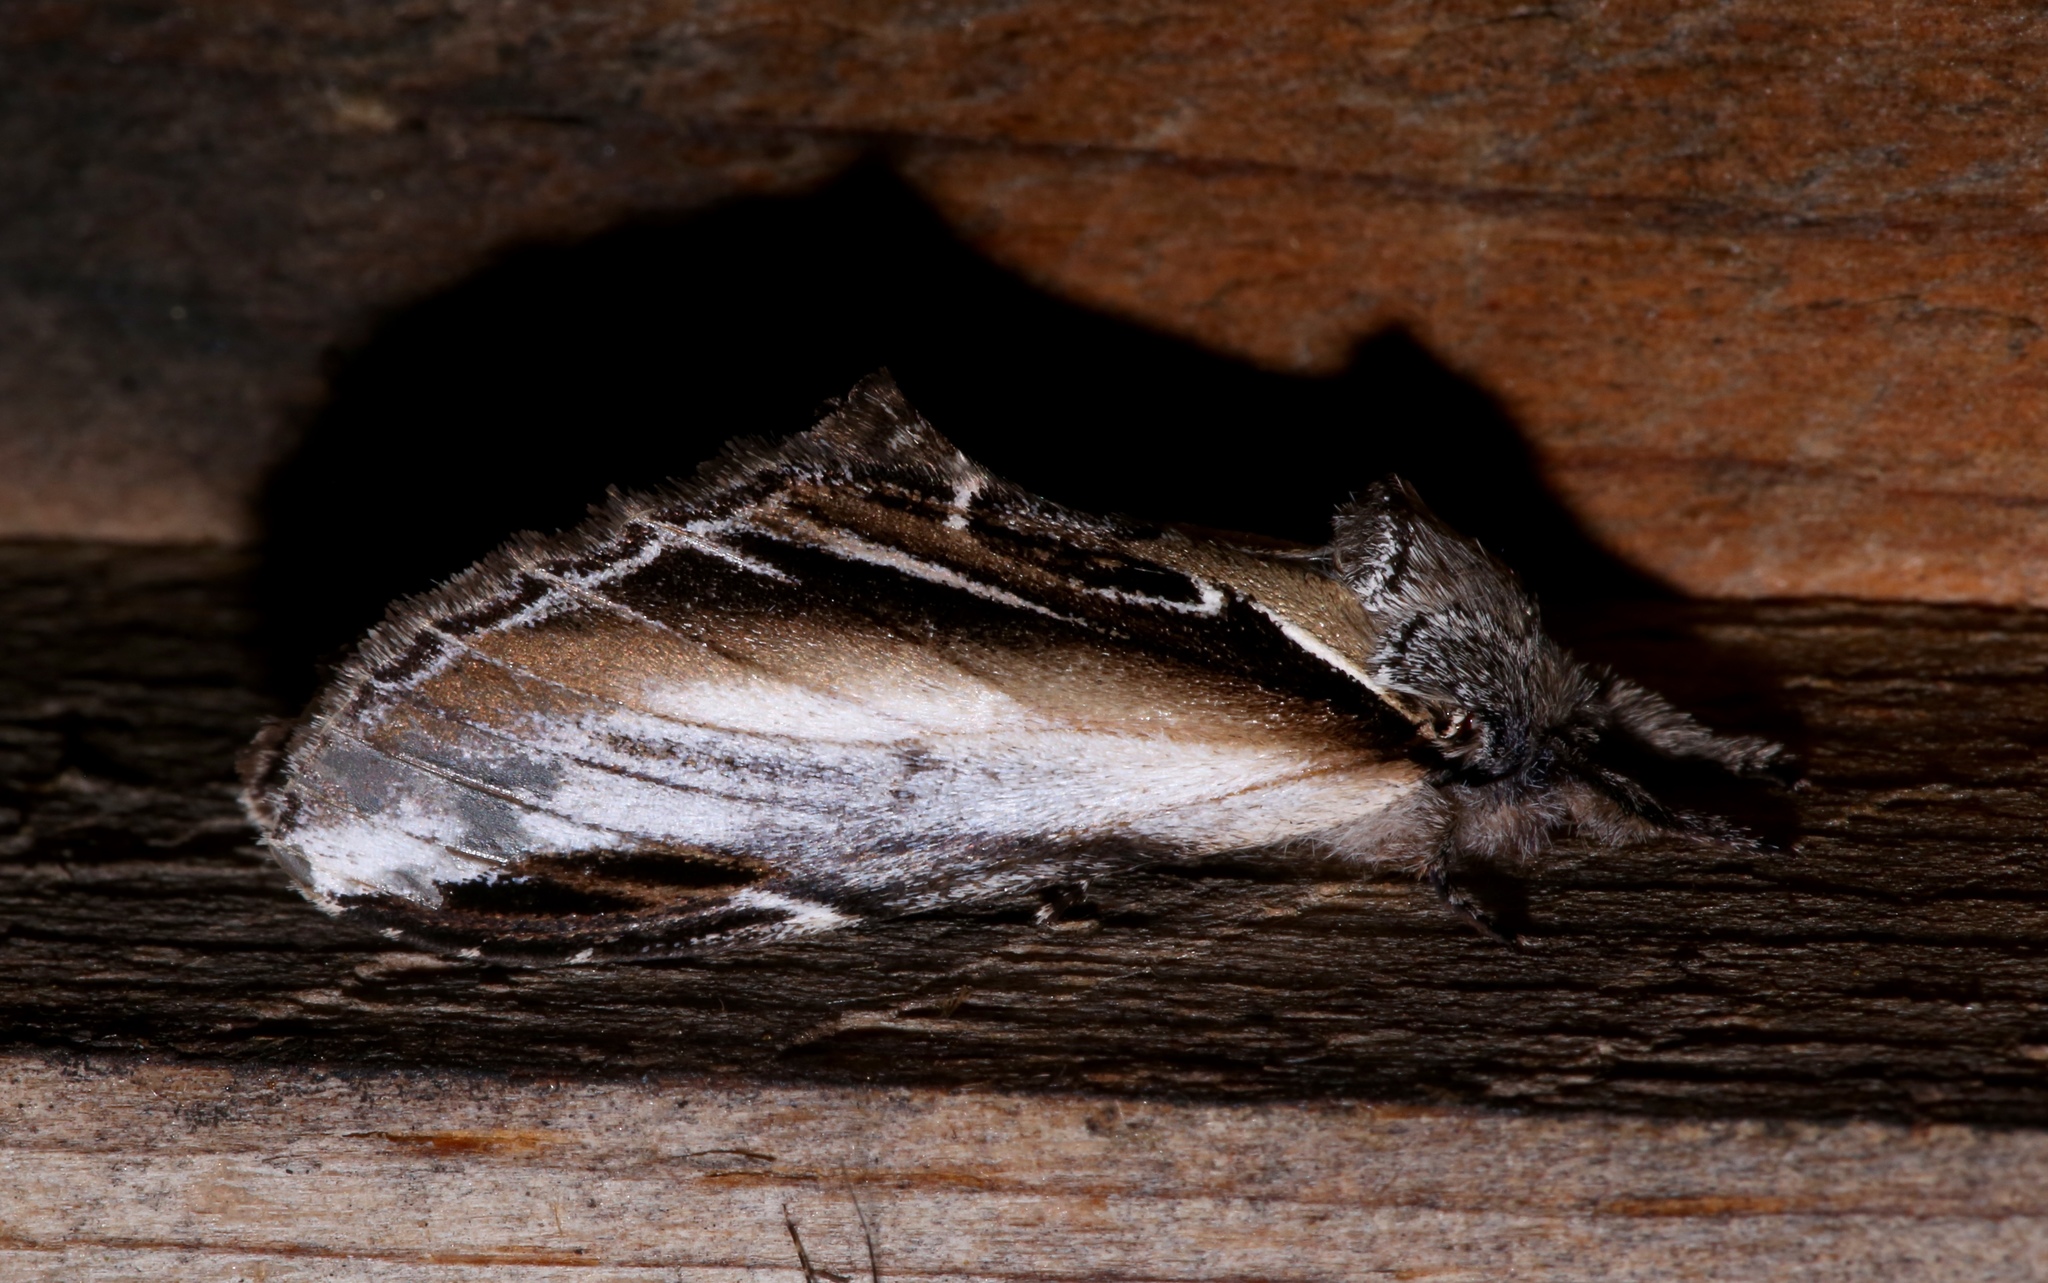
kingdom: Animalia
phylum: Arthropoda
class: Insecta
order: Lepidoptera
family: Notodontidae
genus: Pheosia
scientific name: Pheosia rimosa
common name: Black-rimmed prominent
